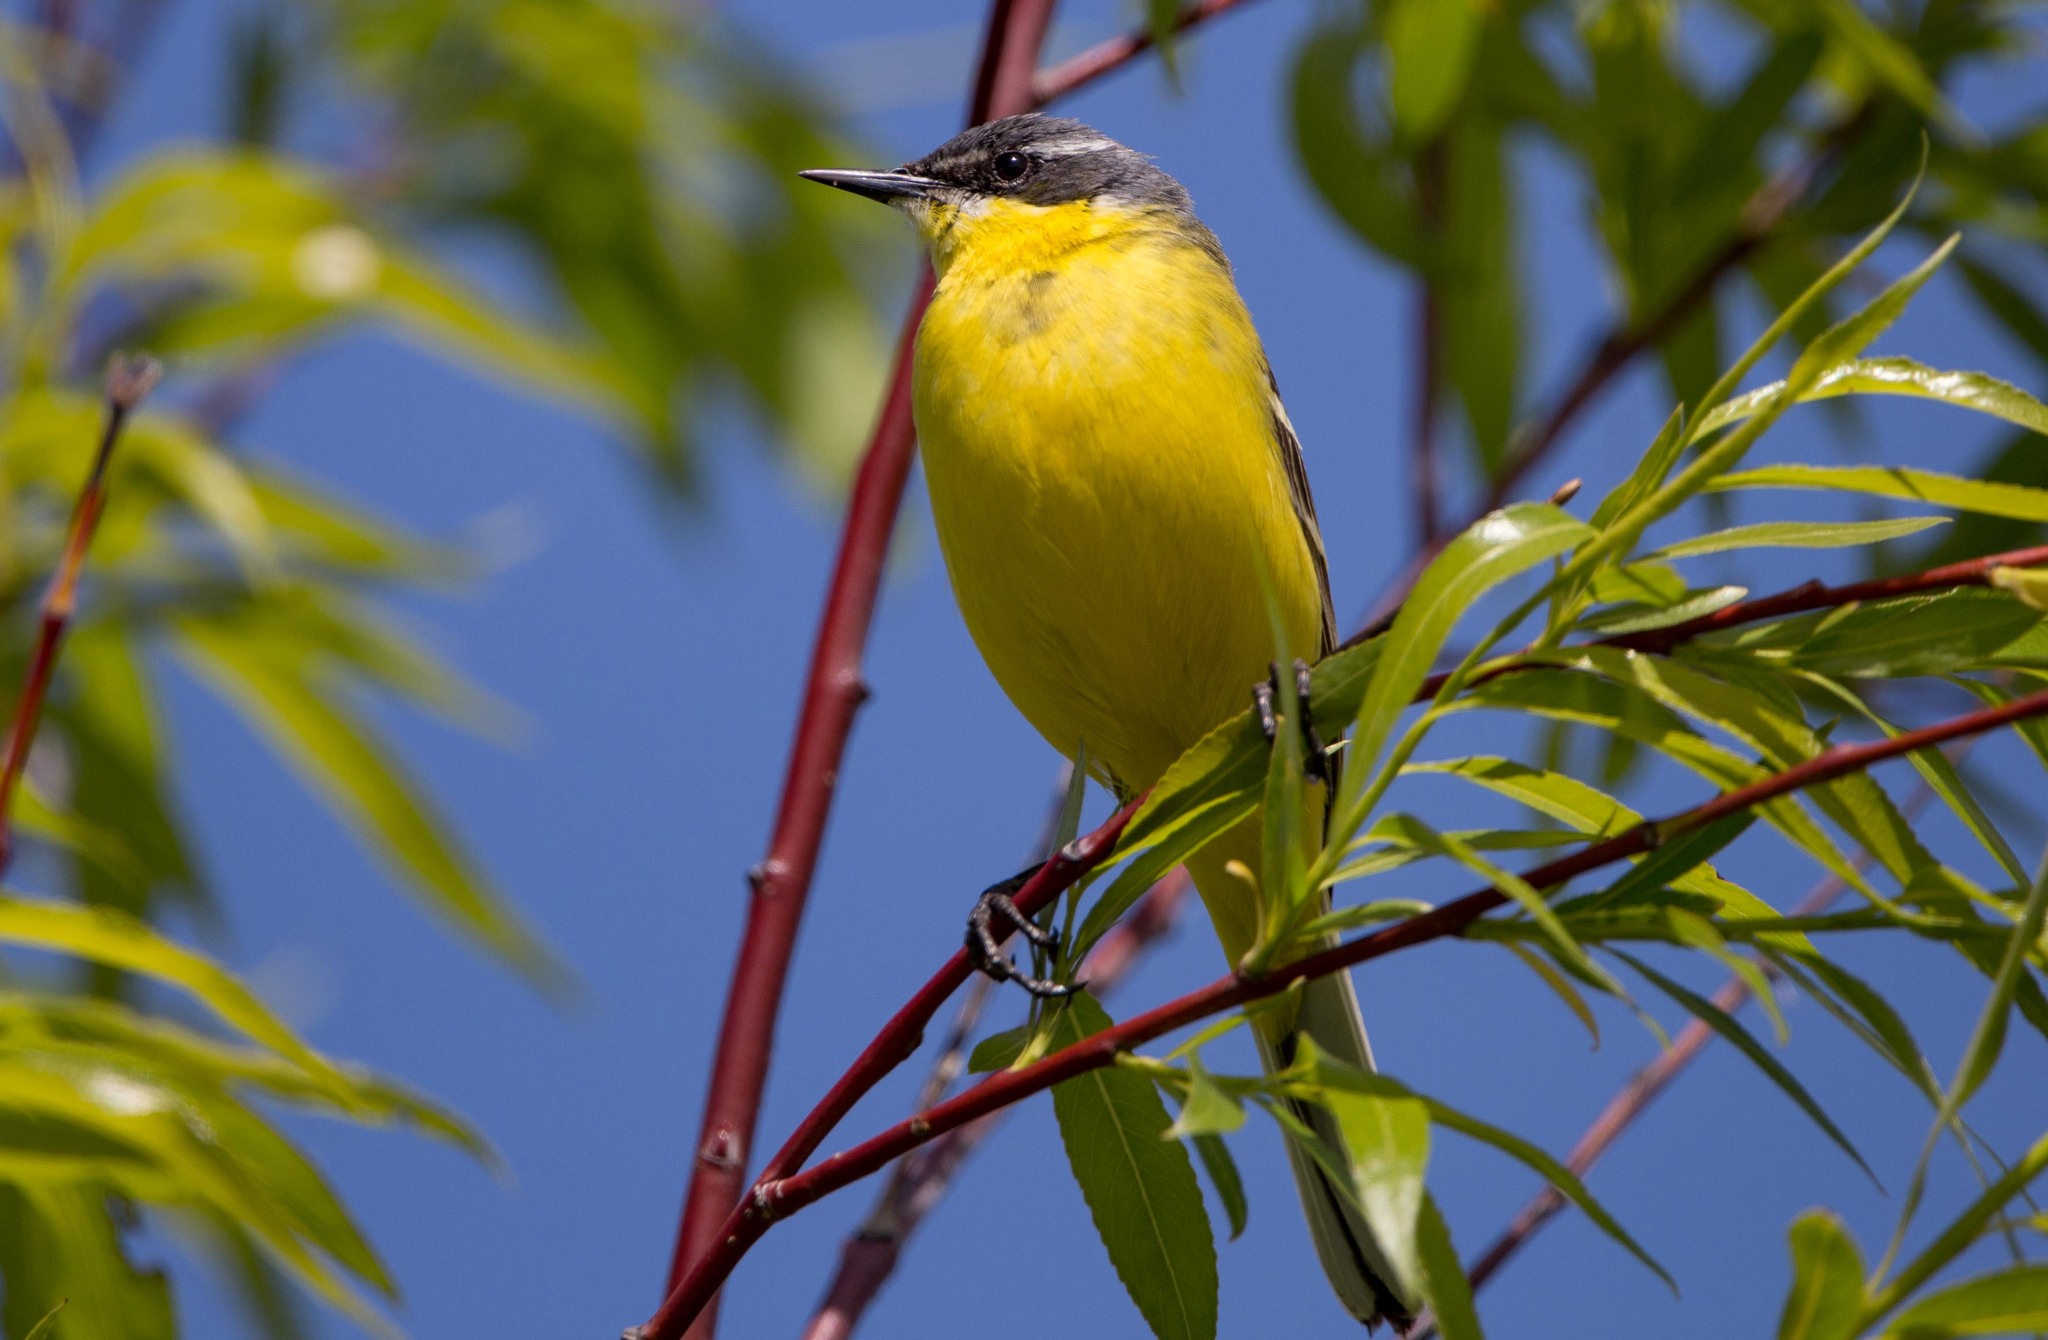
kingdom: Animalia
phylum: Chordata
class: Aves
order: Passeriformes
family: Motacillidae
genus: Motacilla
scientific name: Motacilla flava
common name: Western yellow wagtail
